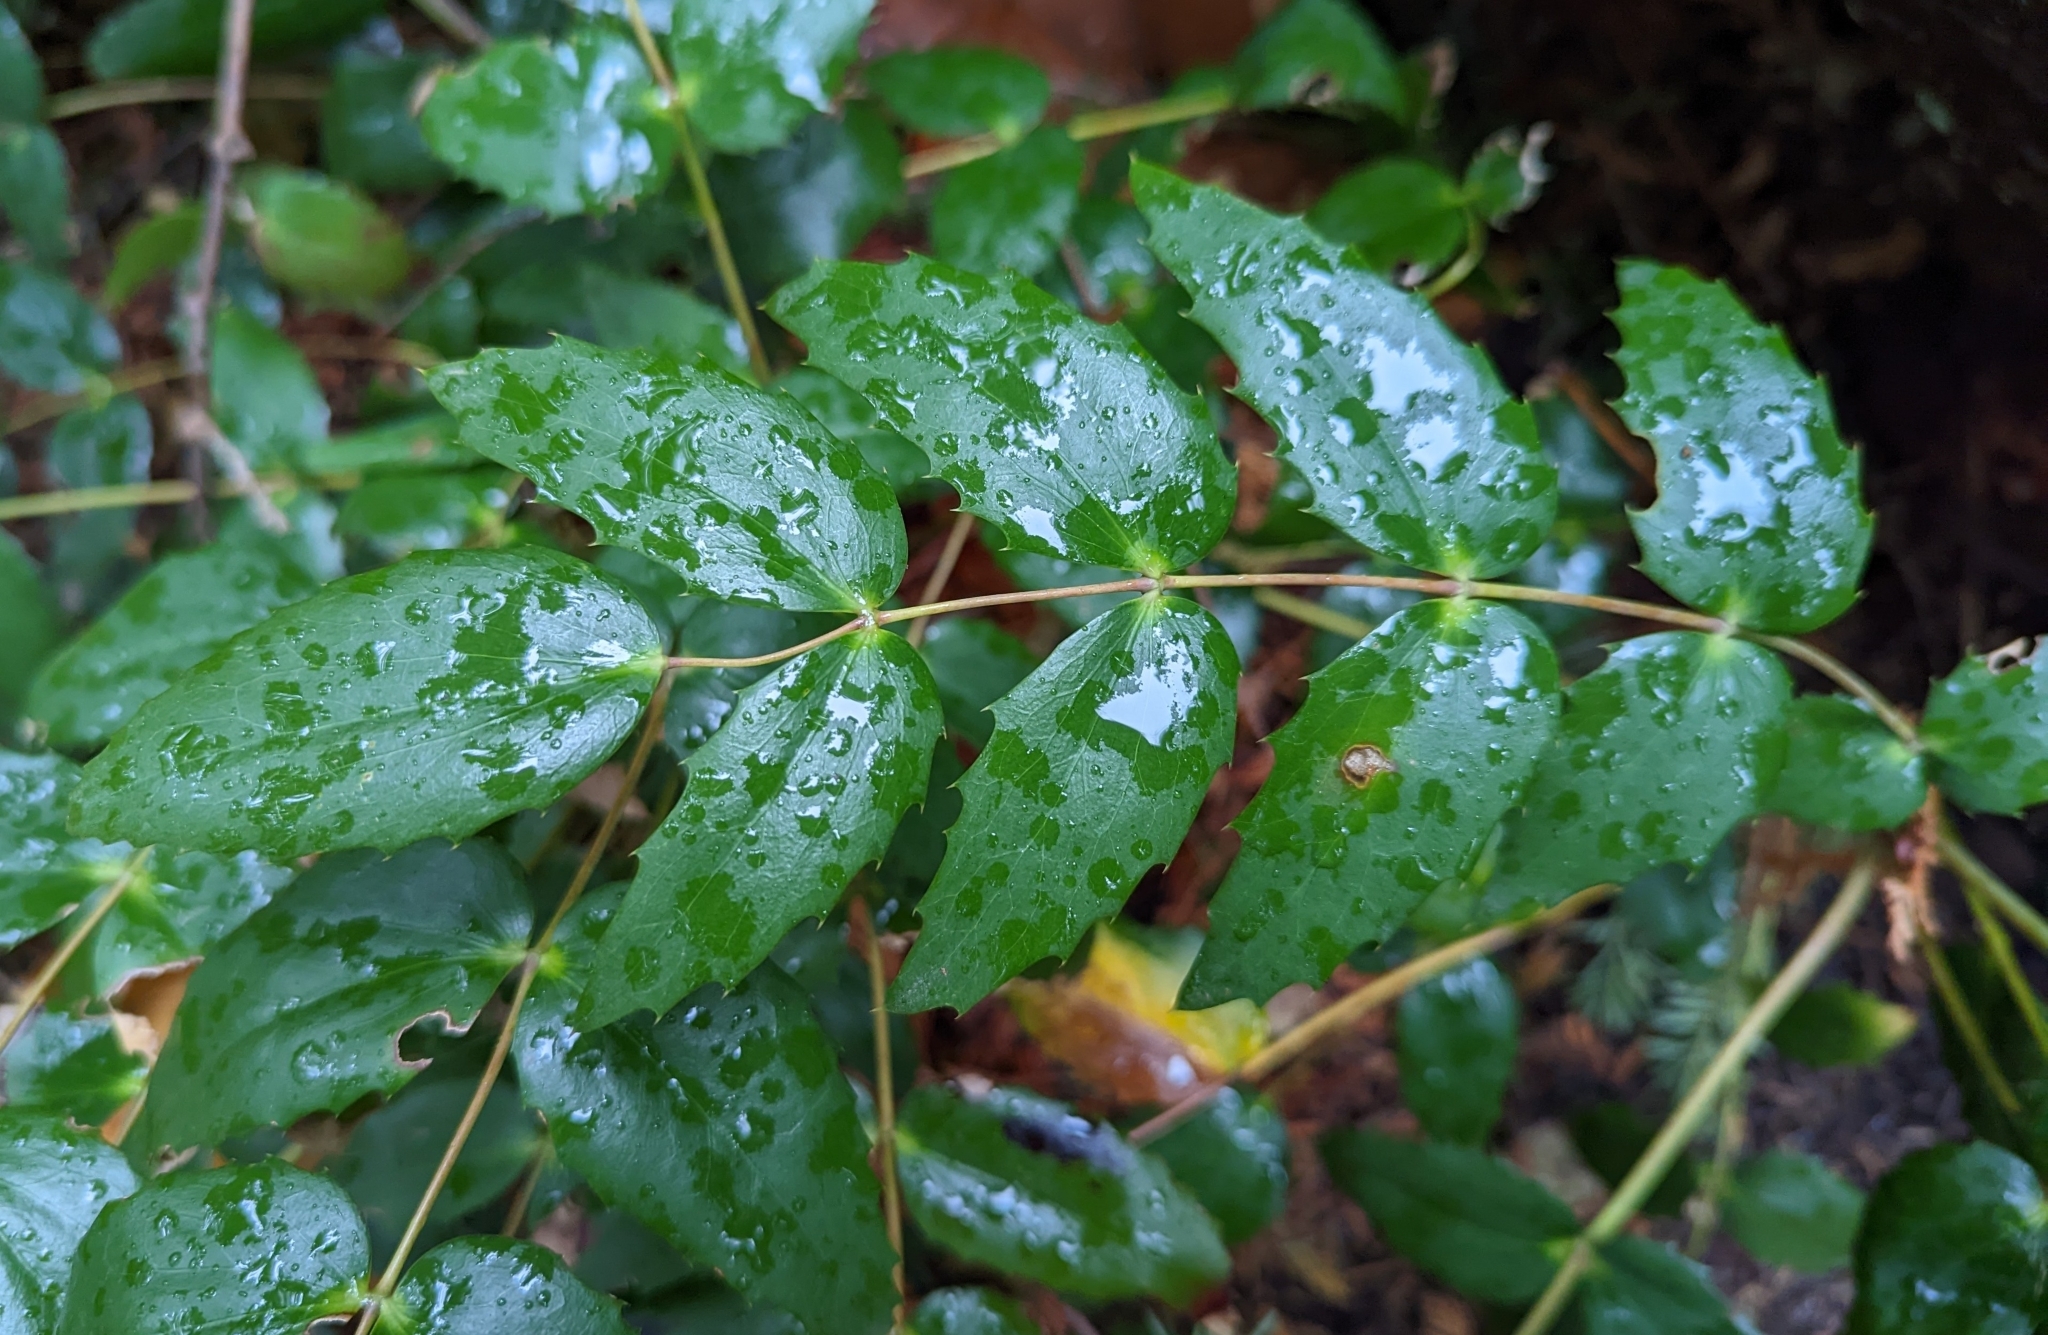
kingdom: Plantae
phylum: Tracheophyta
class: Magnoliopsida
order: Ranunculales
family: Berberidaceae
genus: Mahonia
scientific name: Mahonia nervosa
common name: Cascade oregon-grape
